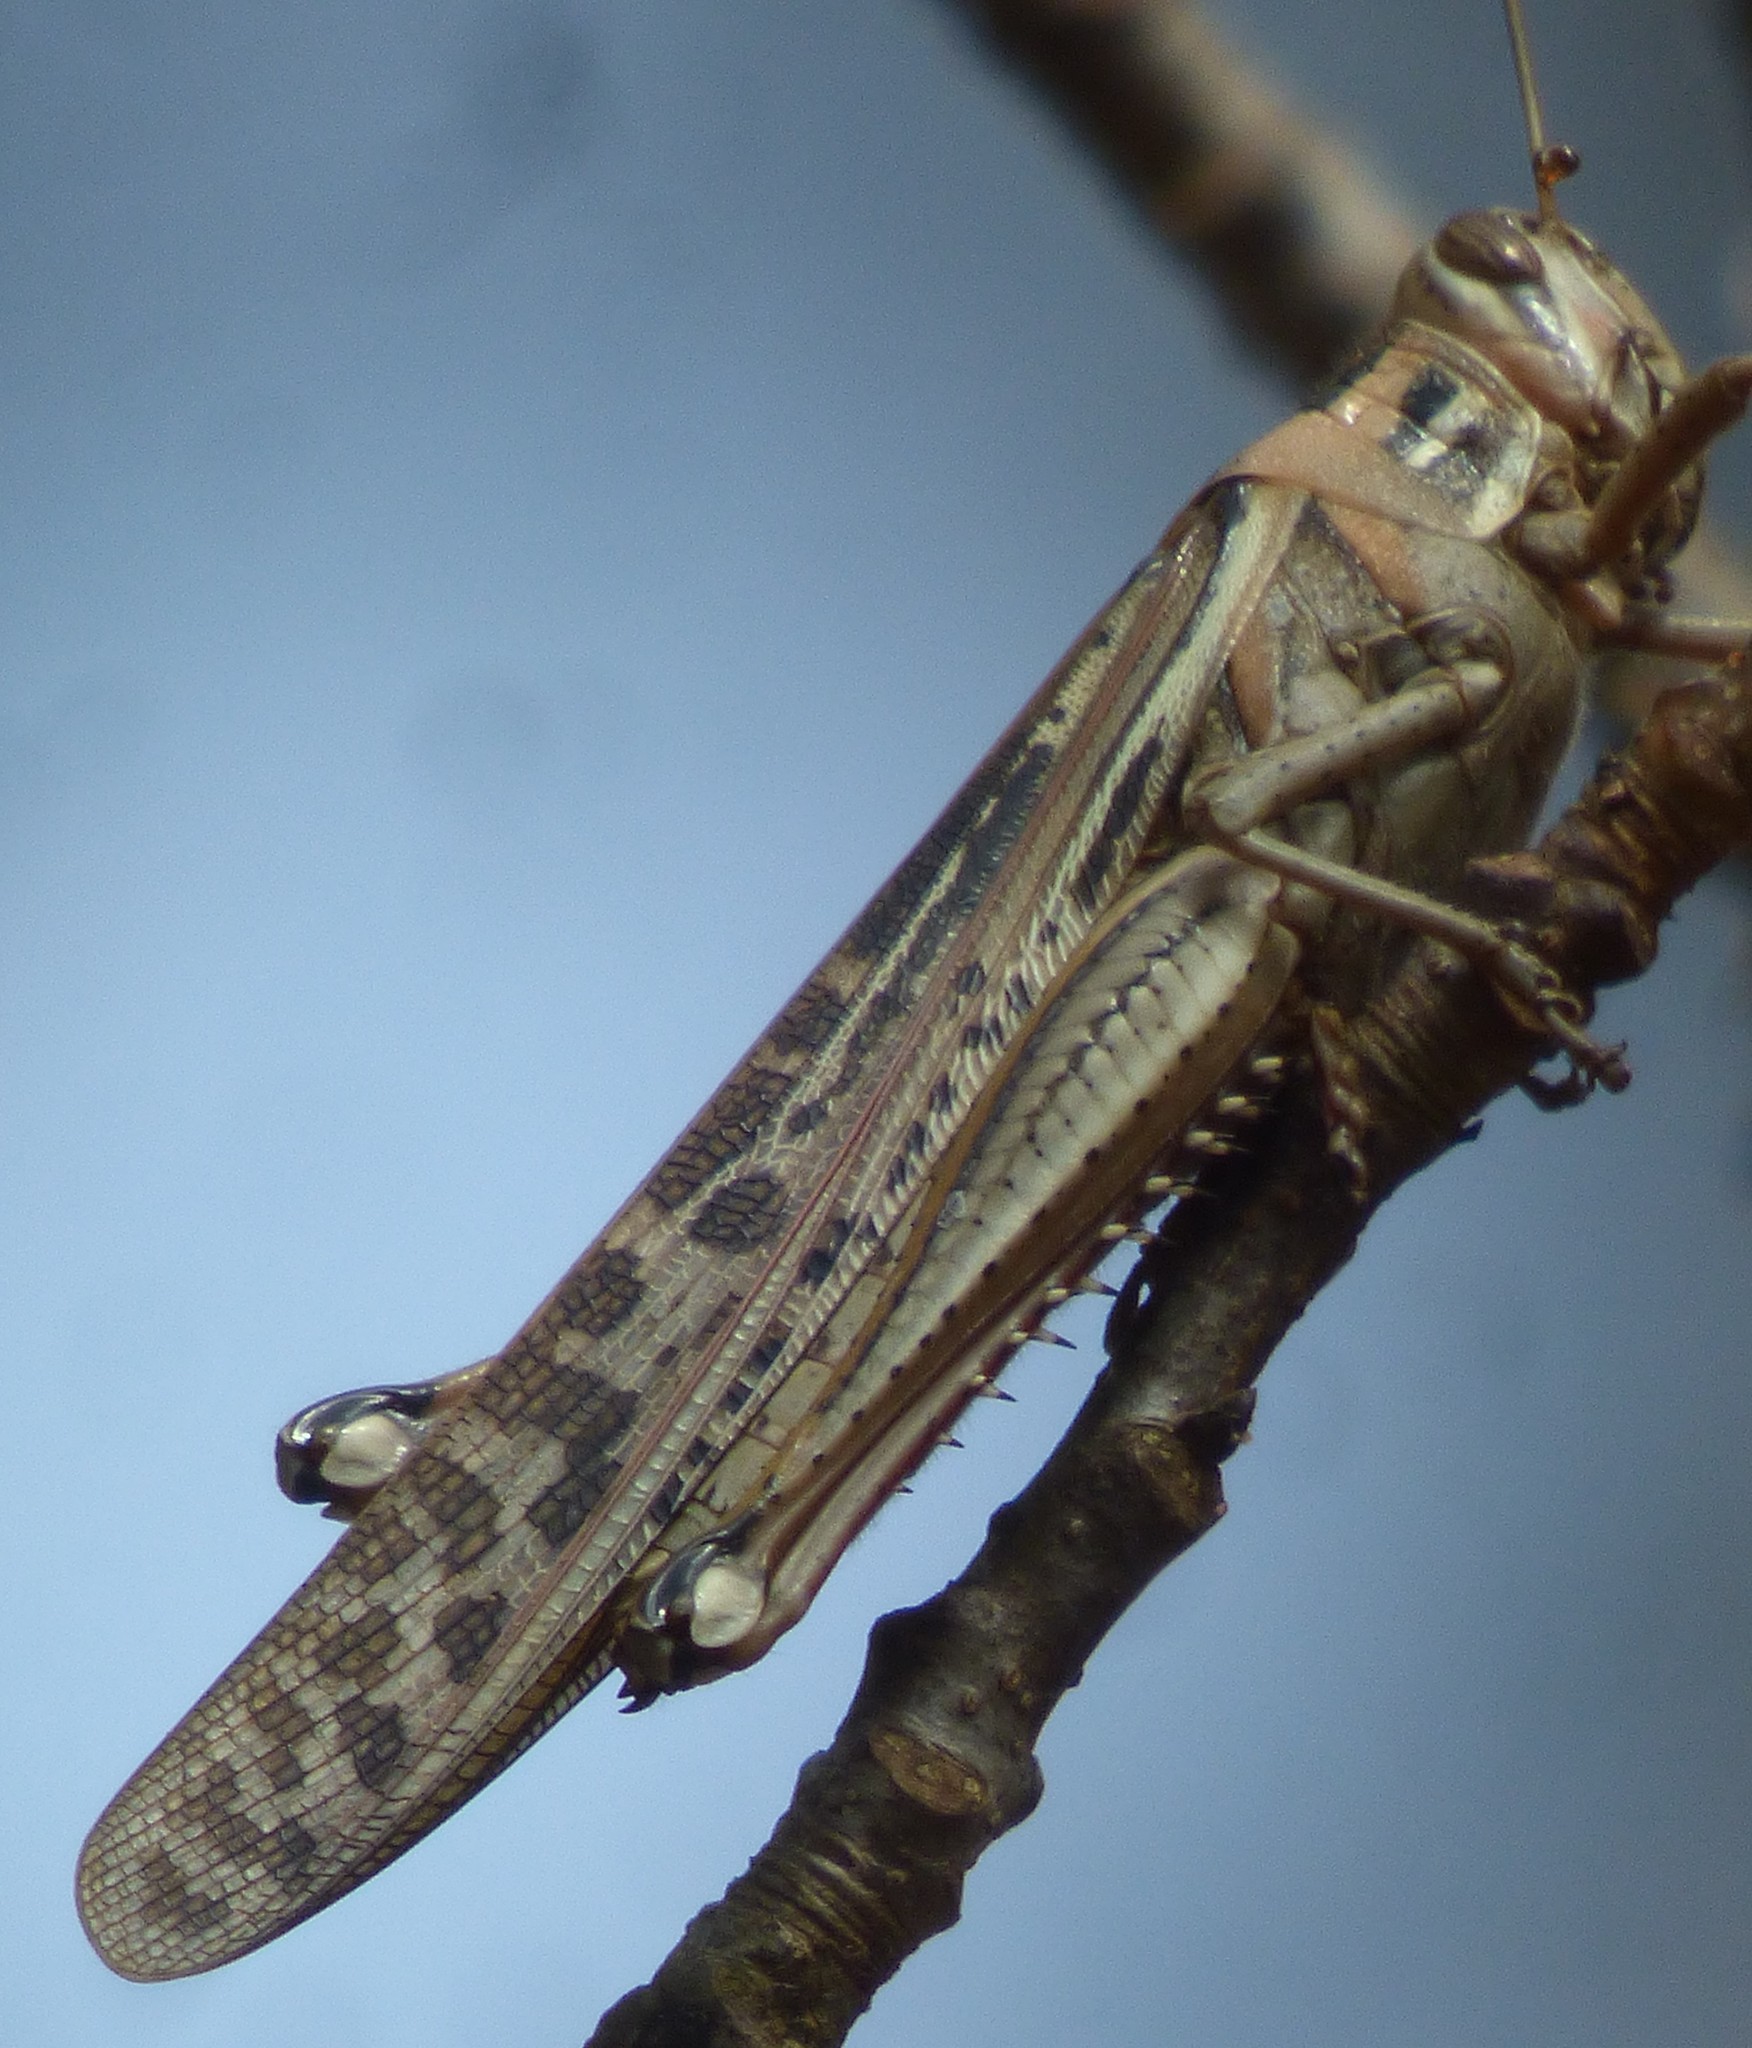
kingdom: Animalia
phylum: Arthropoda
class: Insecta
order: Orthoptera
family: Acrididae
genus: Schistocerca
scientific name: Schistocerca americana
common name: American bird locust
